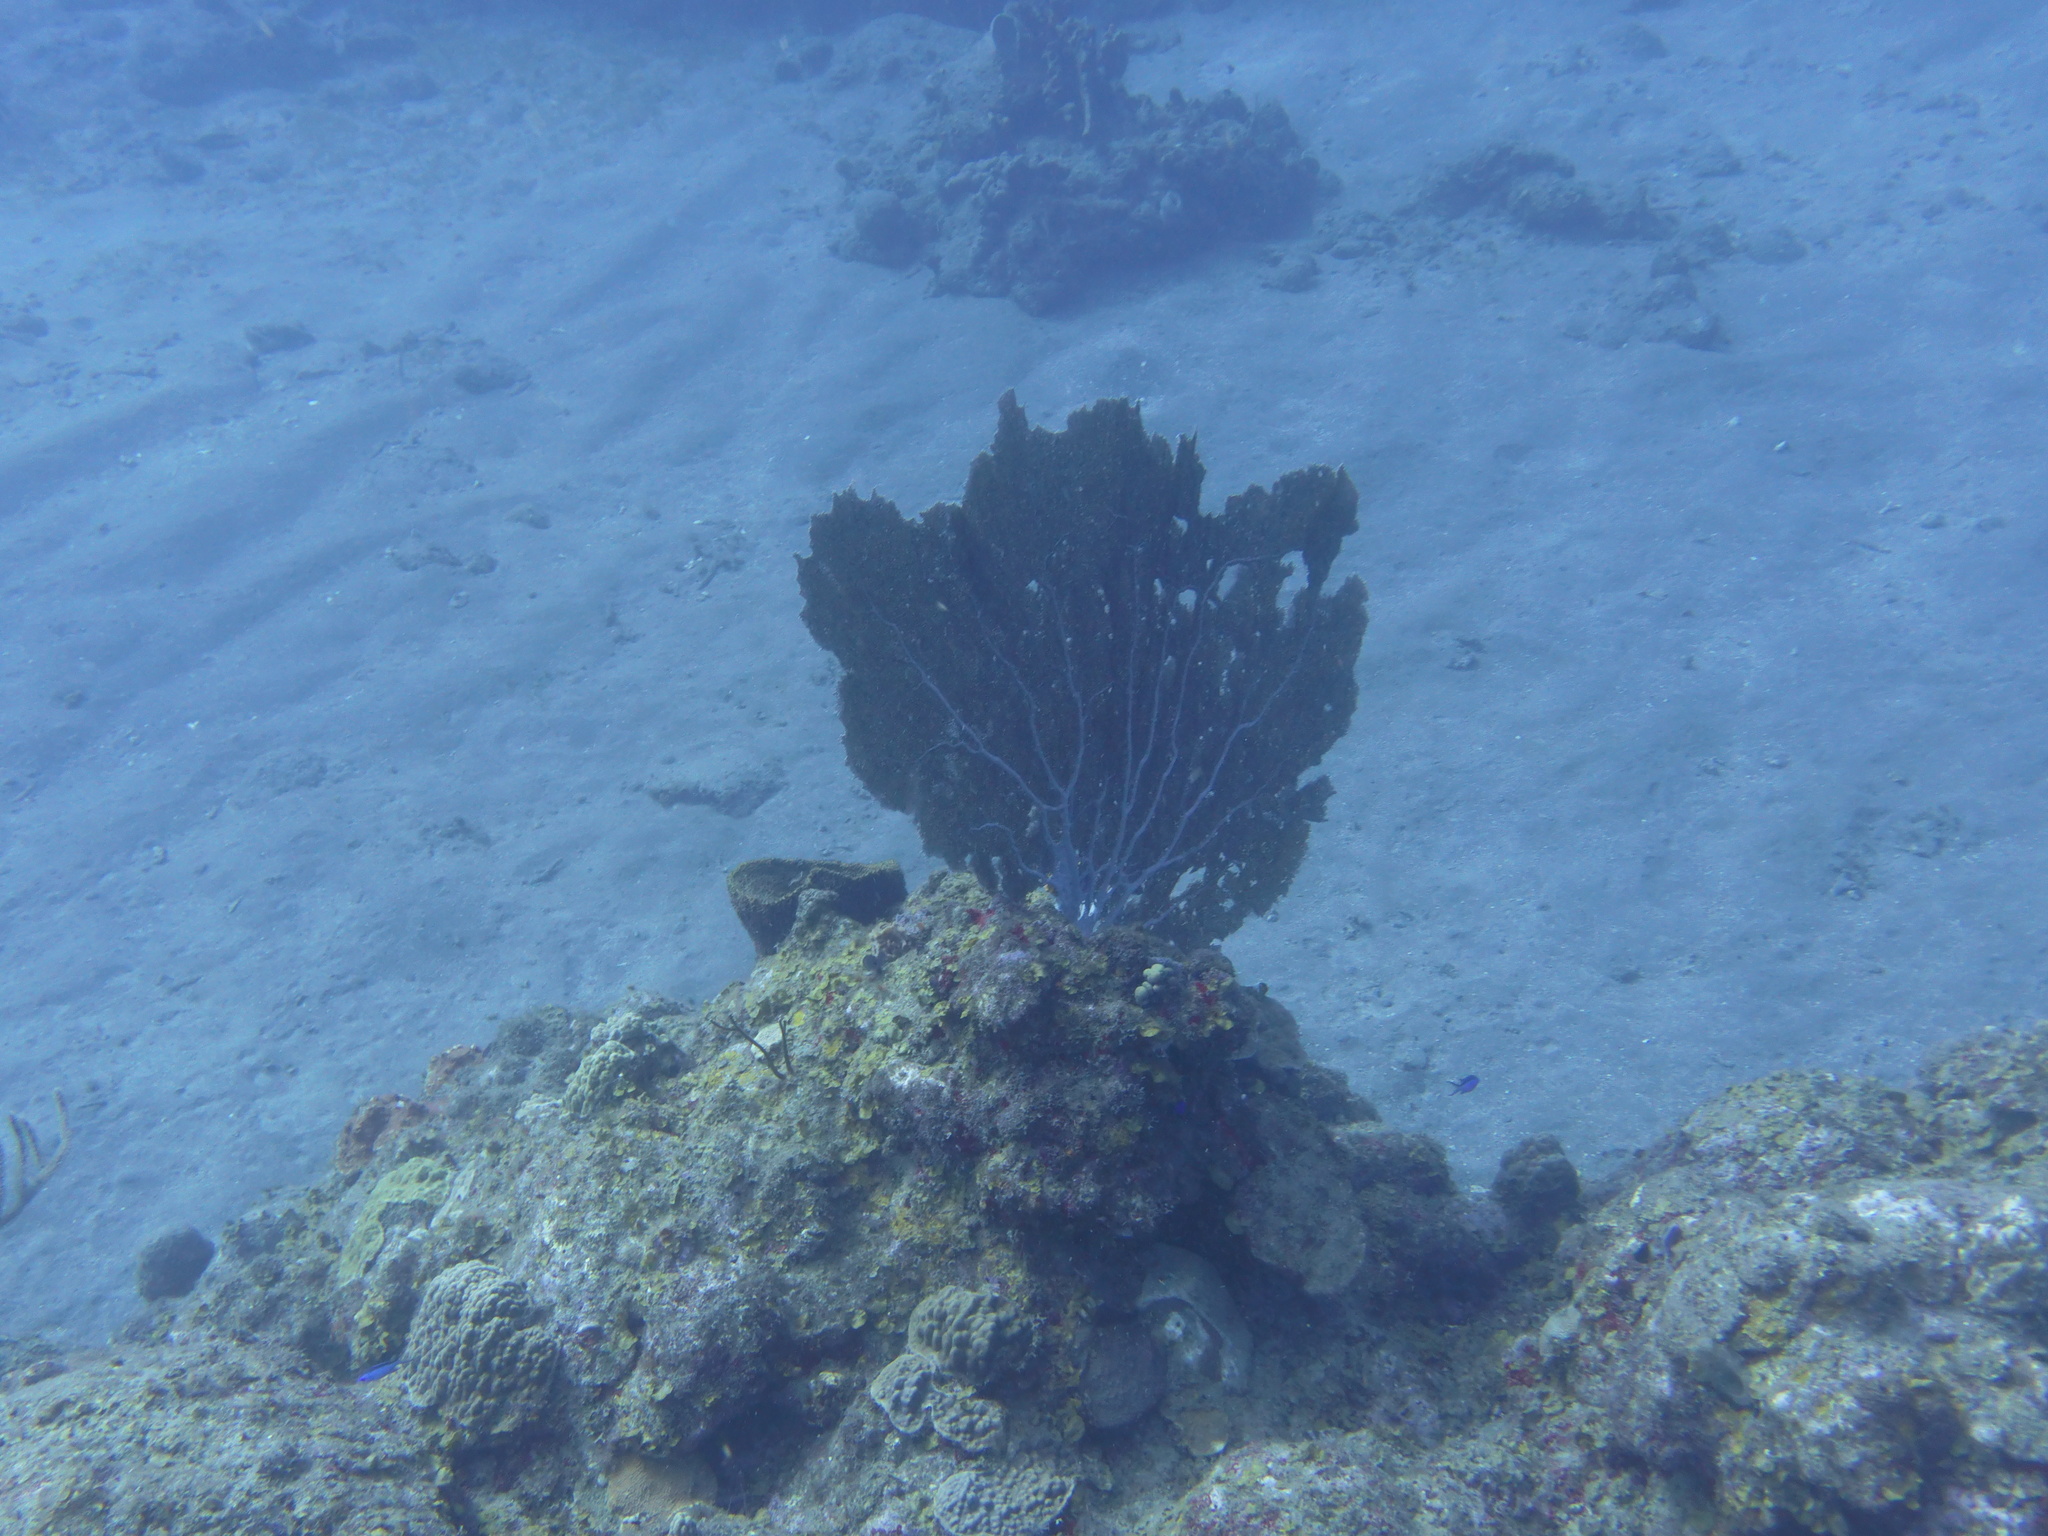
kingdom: Animalia
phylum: Cnidaria
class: Anthozoa
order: Malacalcyonacea
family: Gorgoniidae
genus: Gorgonia
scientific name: Gorgonia ventalina
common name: Common sea fan
